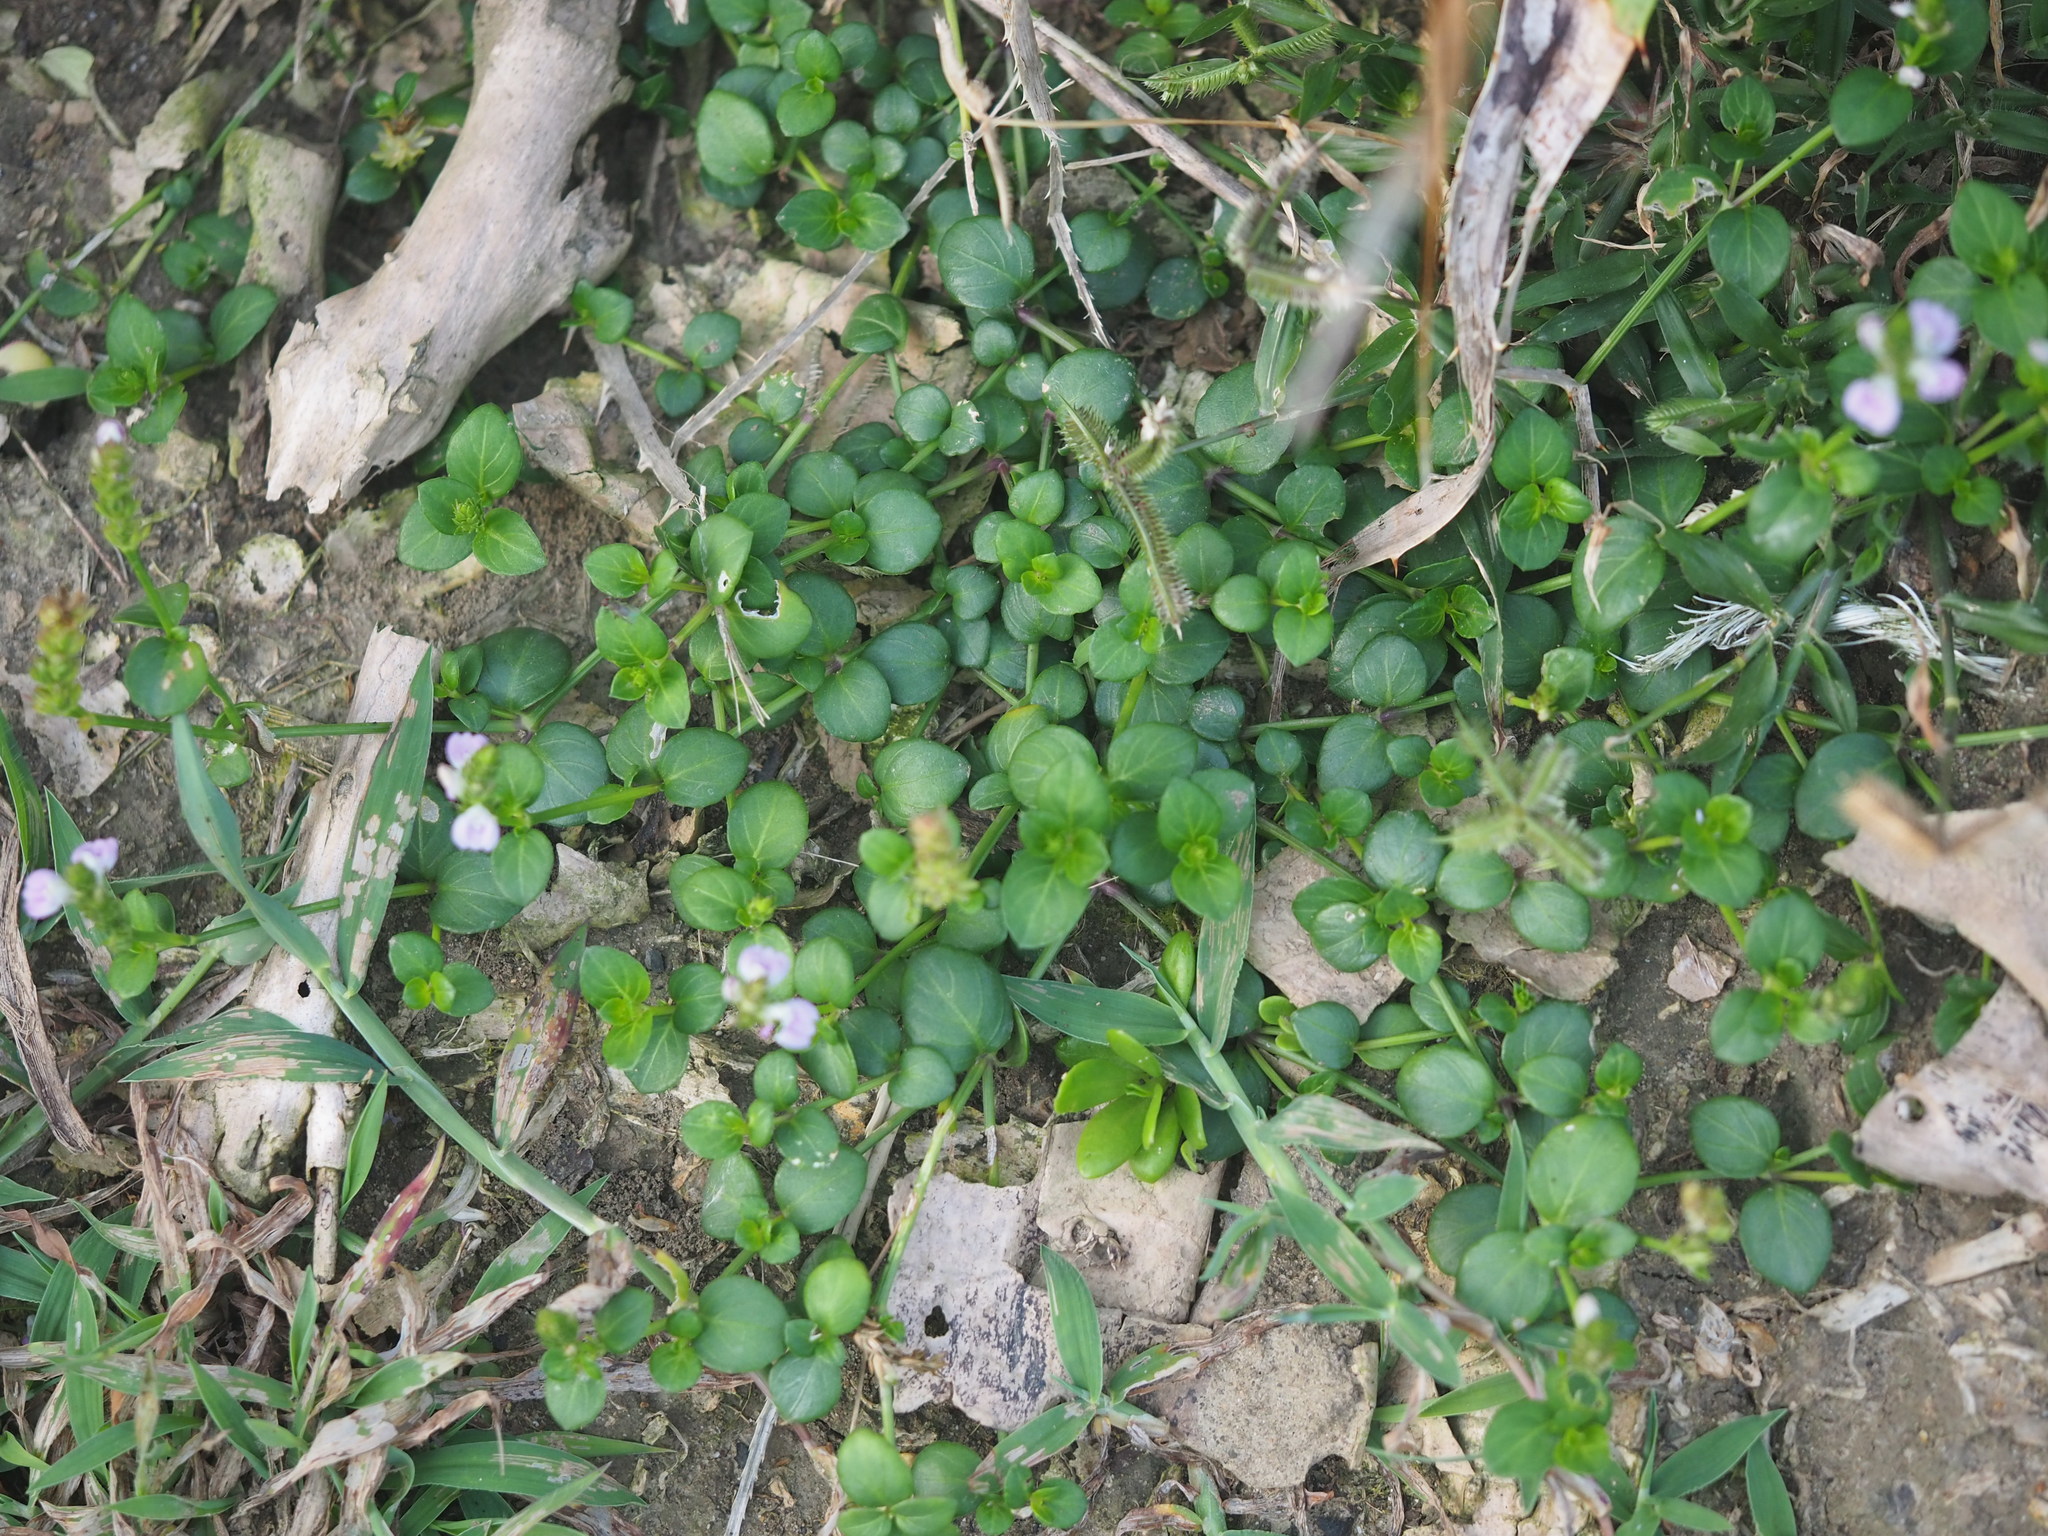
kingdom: Plantae
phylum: Tracheophyta
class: Magnoliopsida
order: Lamiales
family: Acanthaceae
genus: Rostellularia
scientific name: Rostellularia hayatae
